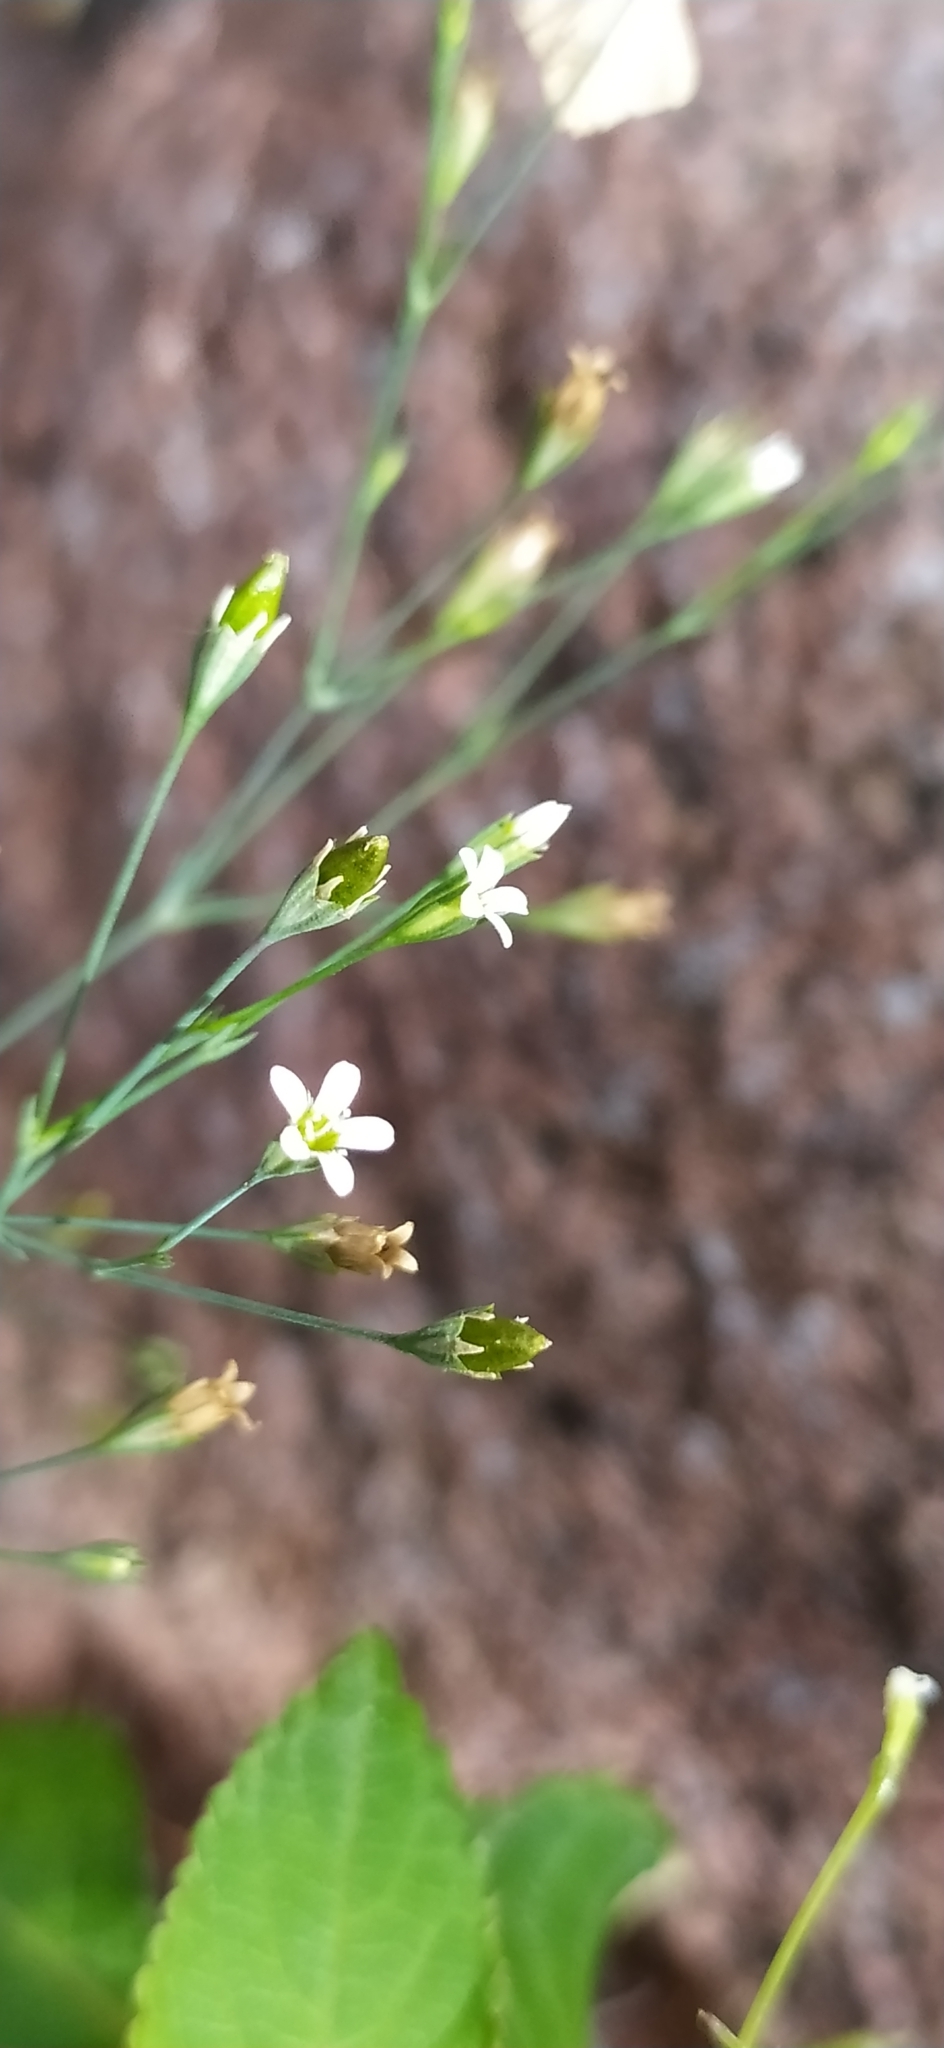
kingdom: Plantae
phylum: Tracheophyta
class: Magnoliopsida
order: Caryophyllales
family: Caryophyllaceae
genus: Petrorhagia
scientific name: Petrorhagia alpina
